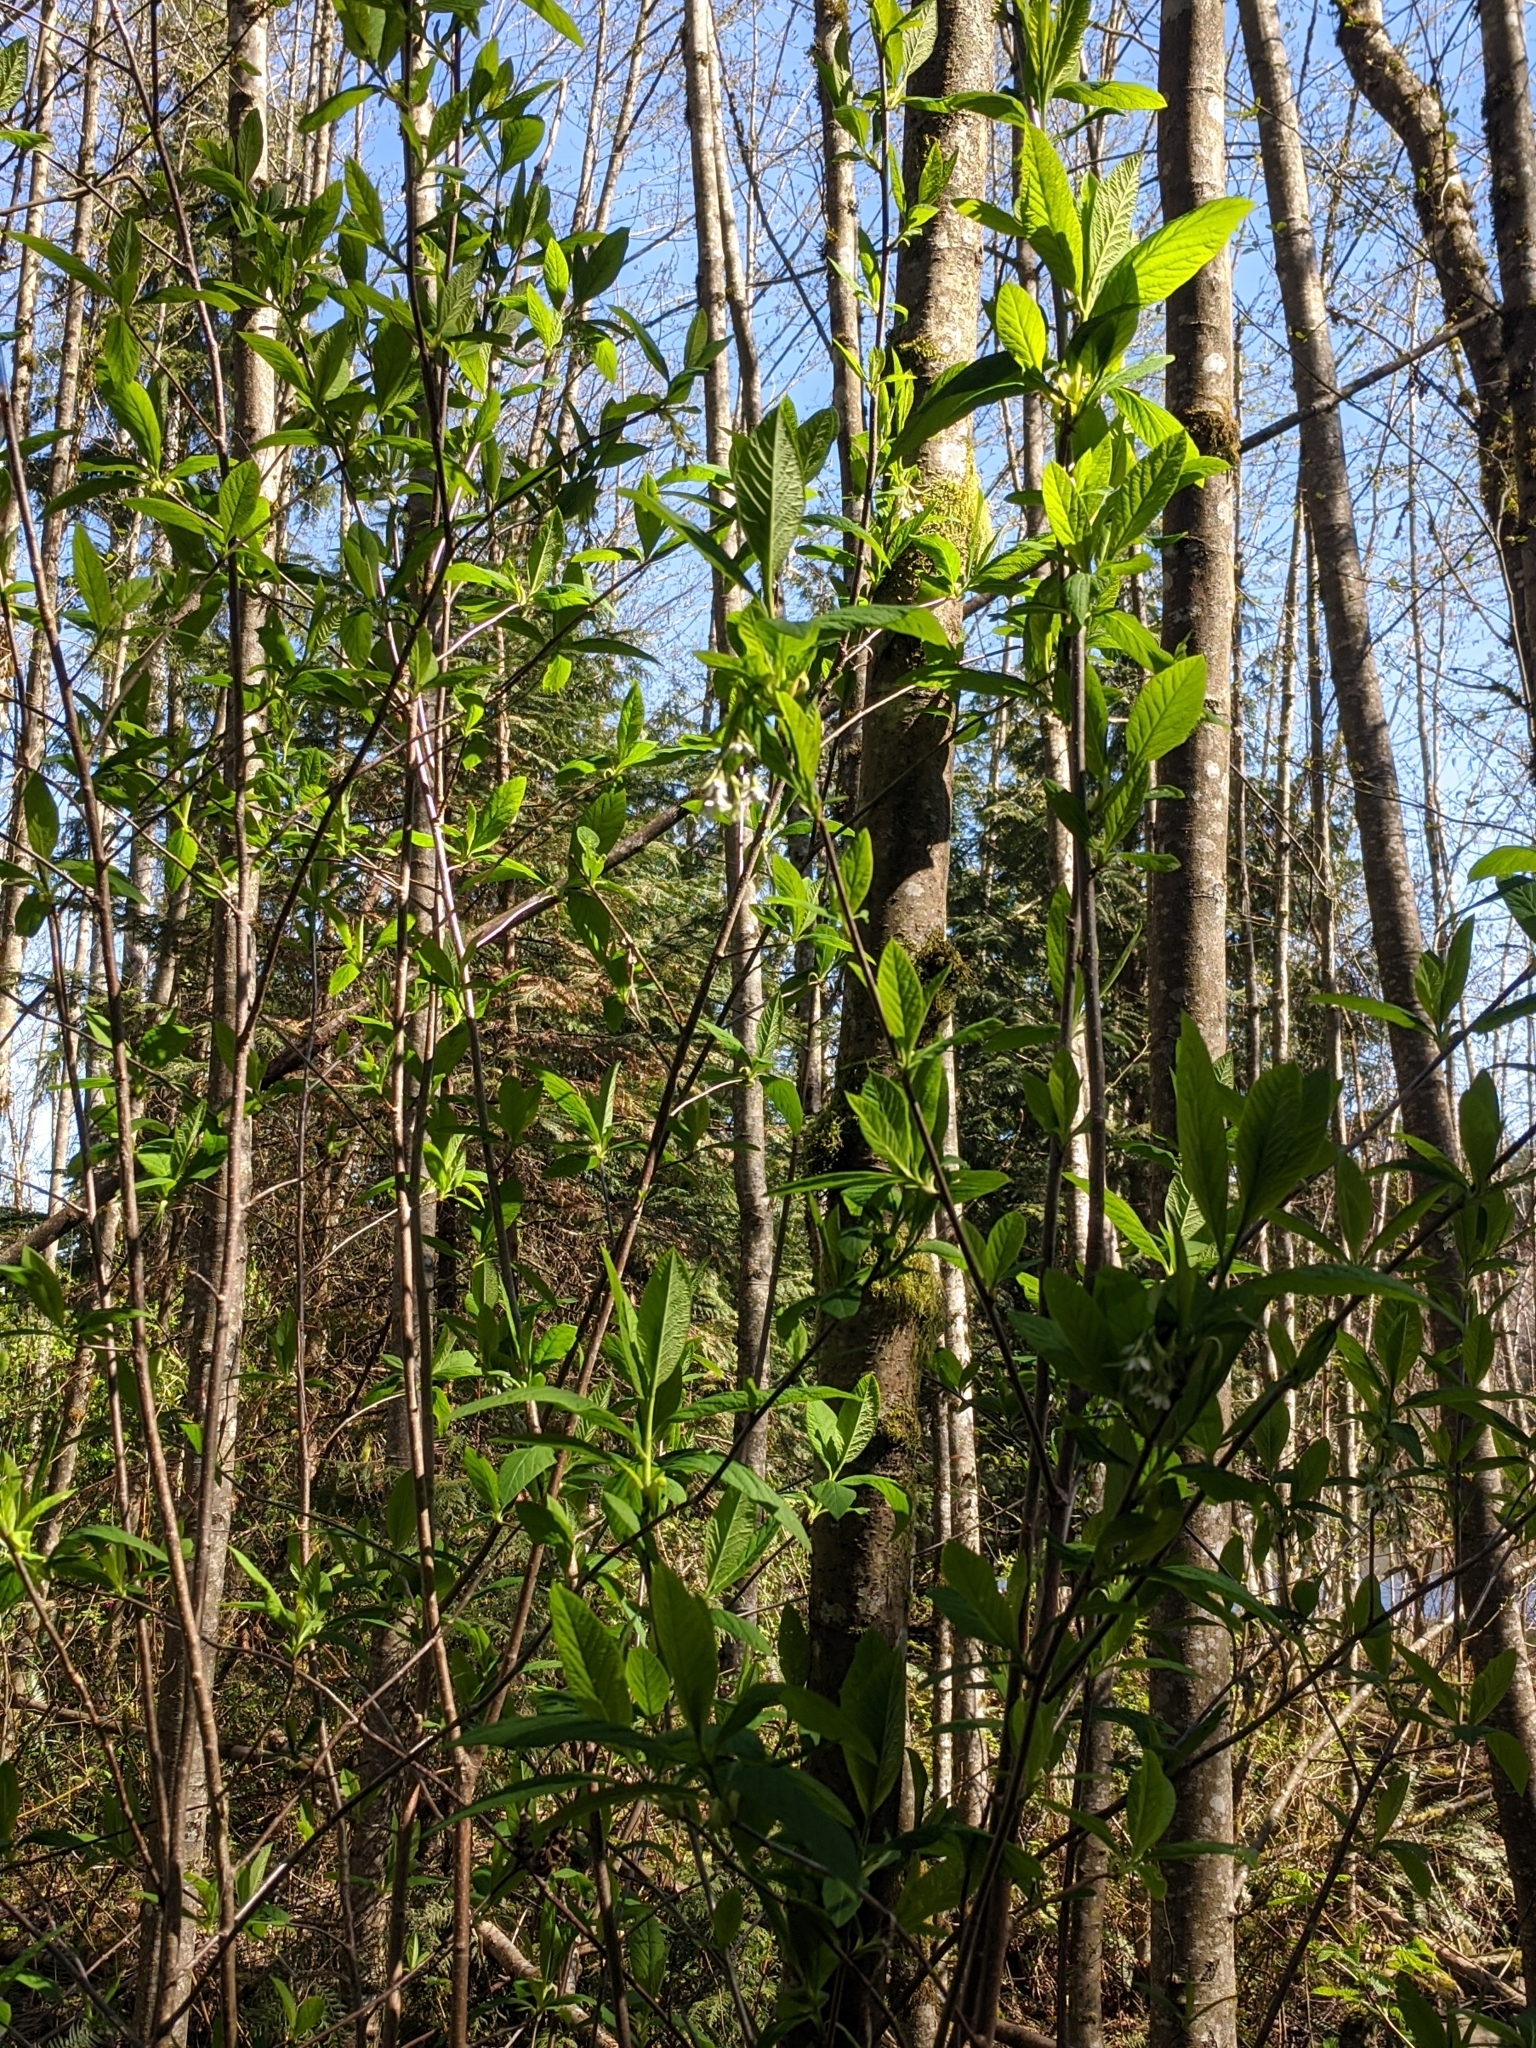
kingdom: Plantae
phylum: Tracheophyta
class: Magnoliopsida
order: Rosales
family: Rosaceae
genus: Oemleria
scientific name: Oemleria cerasiformis
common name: Osoberry
